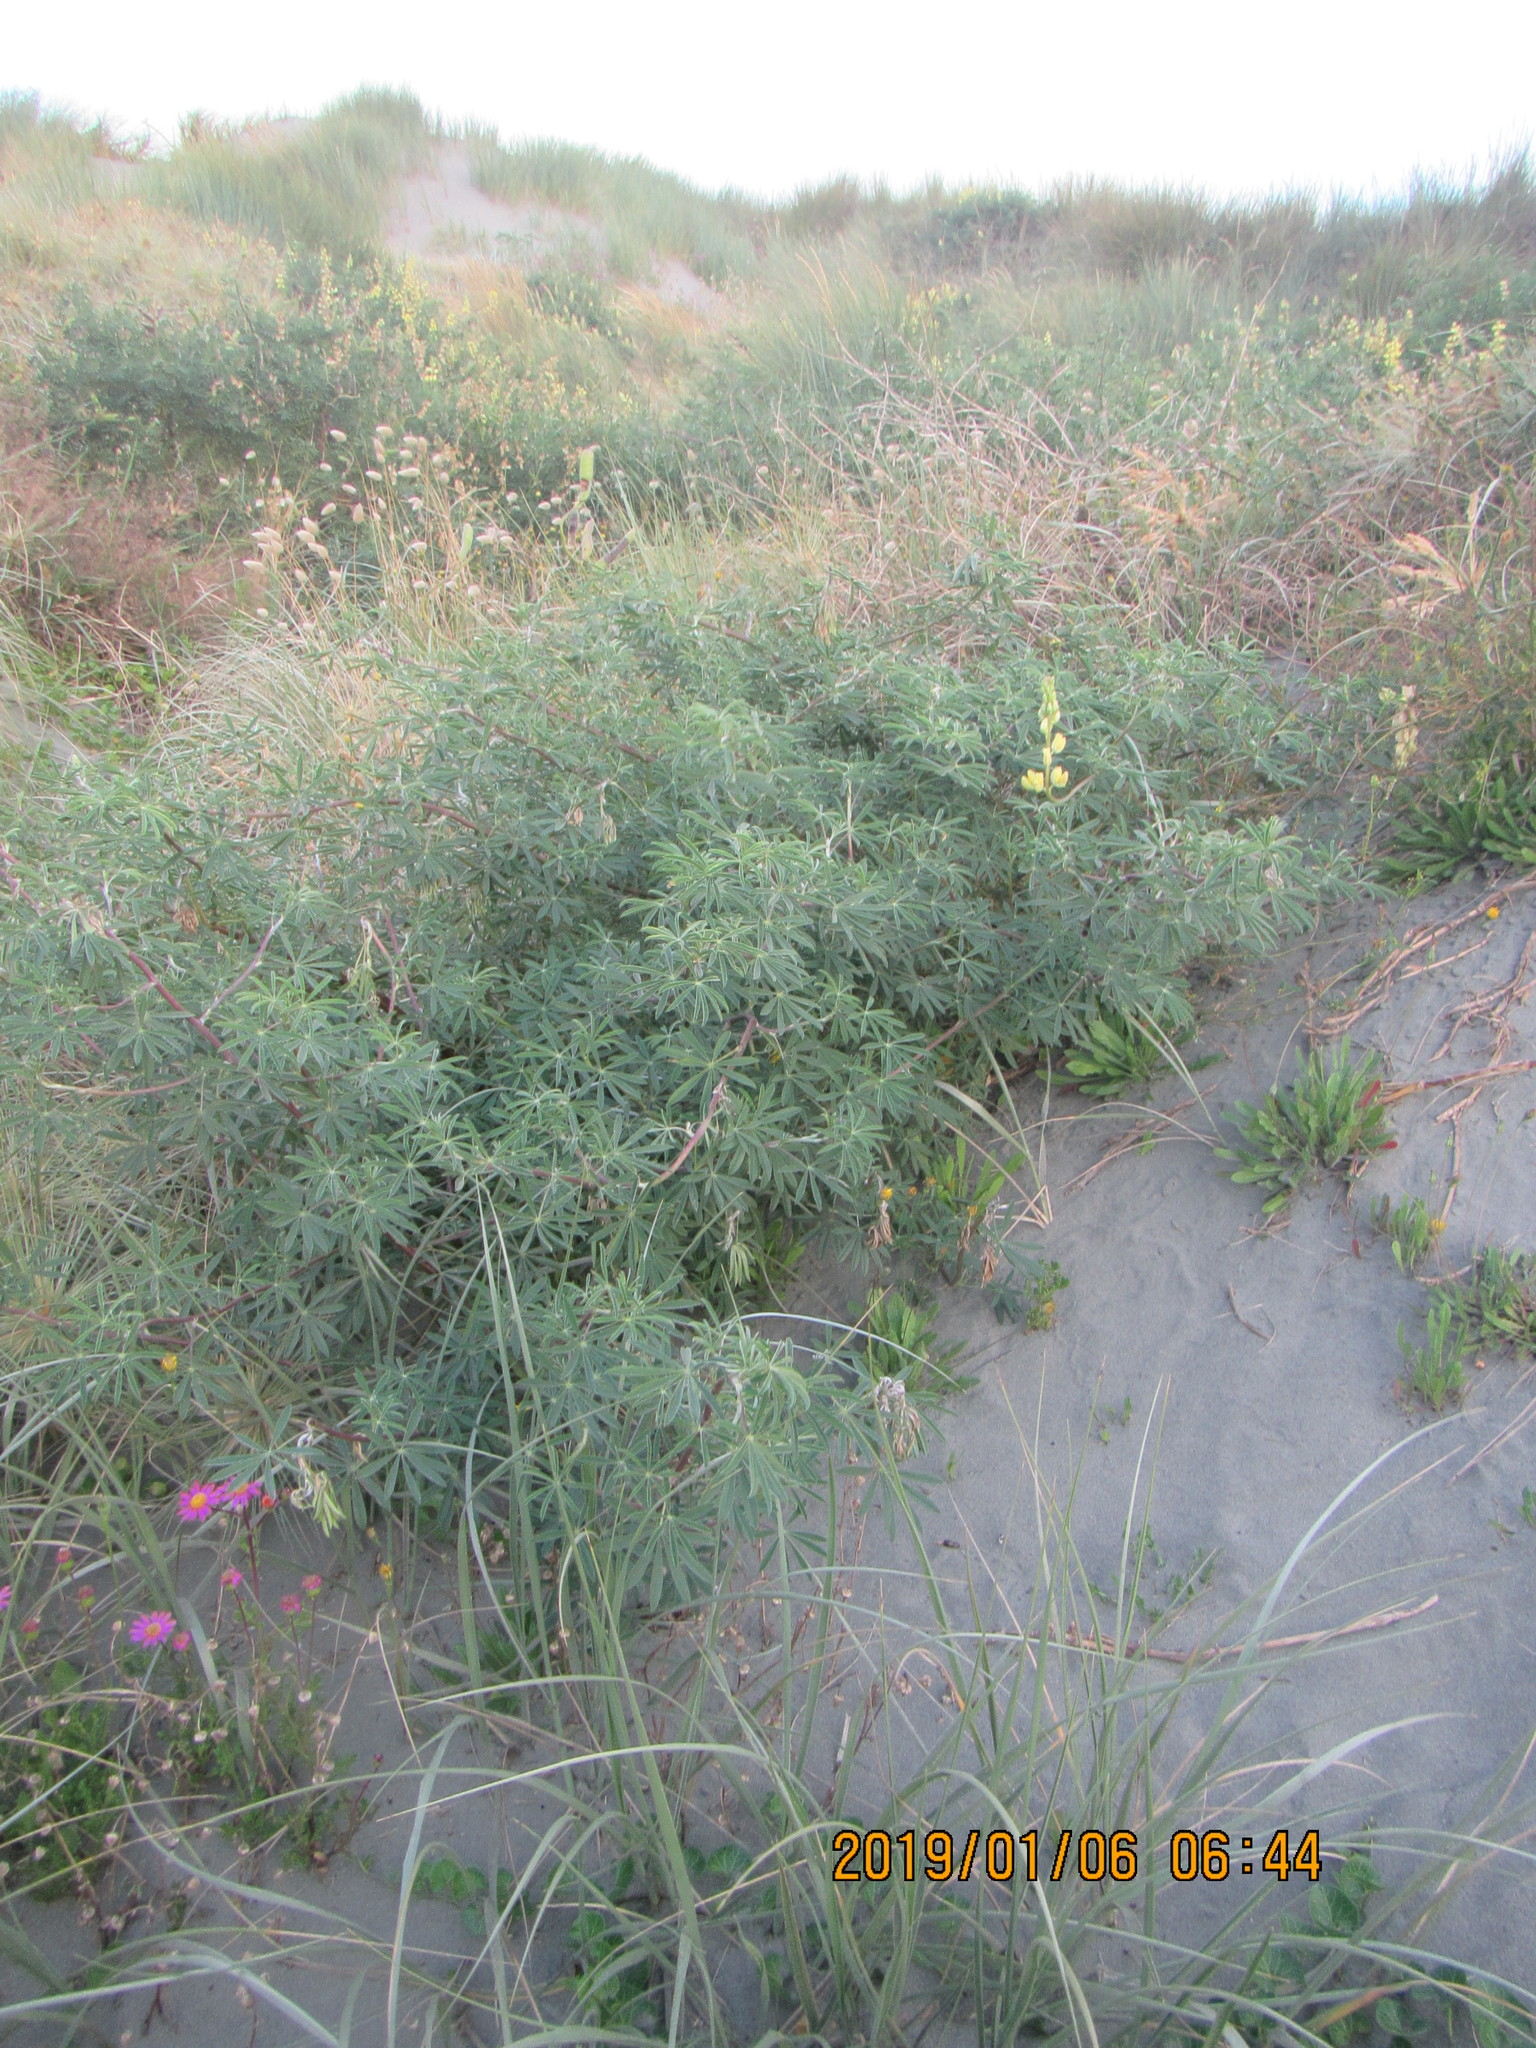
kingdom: Plantae
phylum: Tracheophyta
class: Magnoliopsida
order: Fabales
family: Fabaceae
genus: Lupinus
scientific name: Lupinus arboreus
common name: Yellow bush lupine
